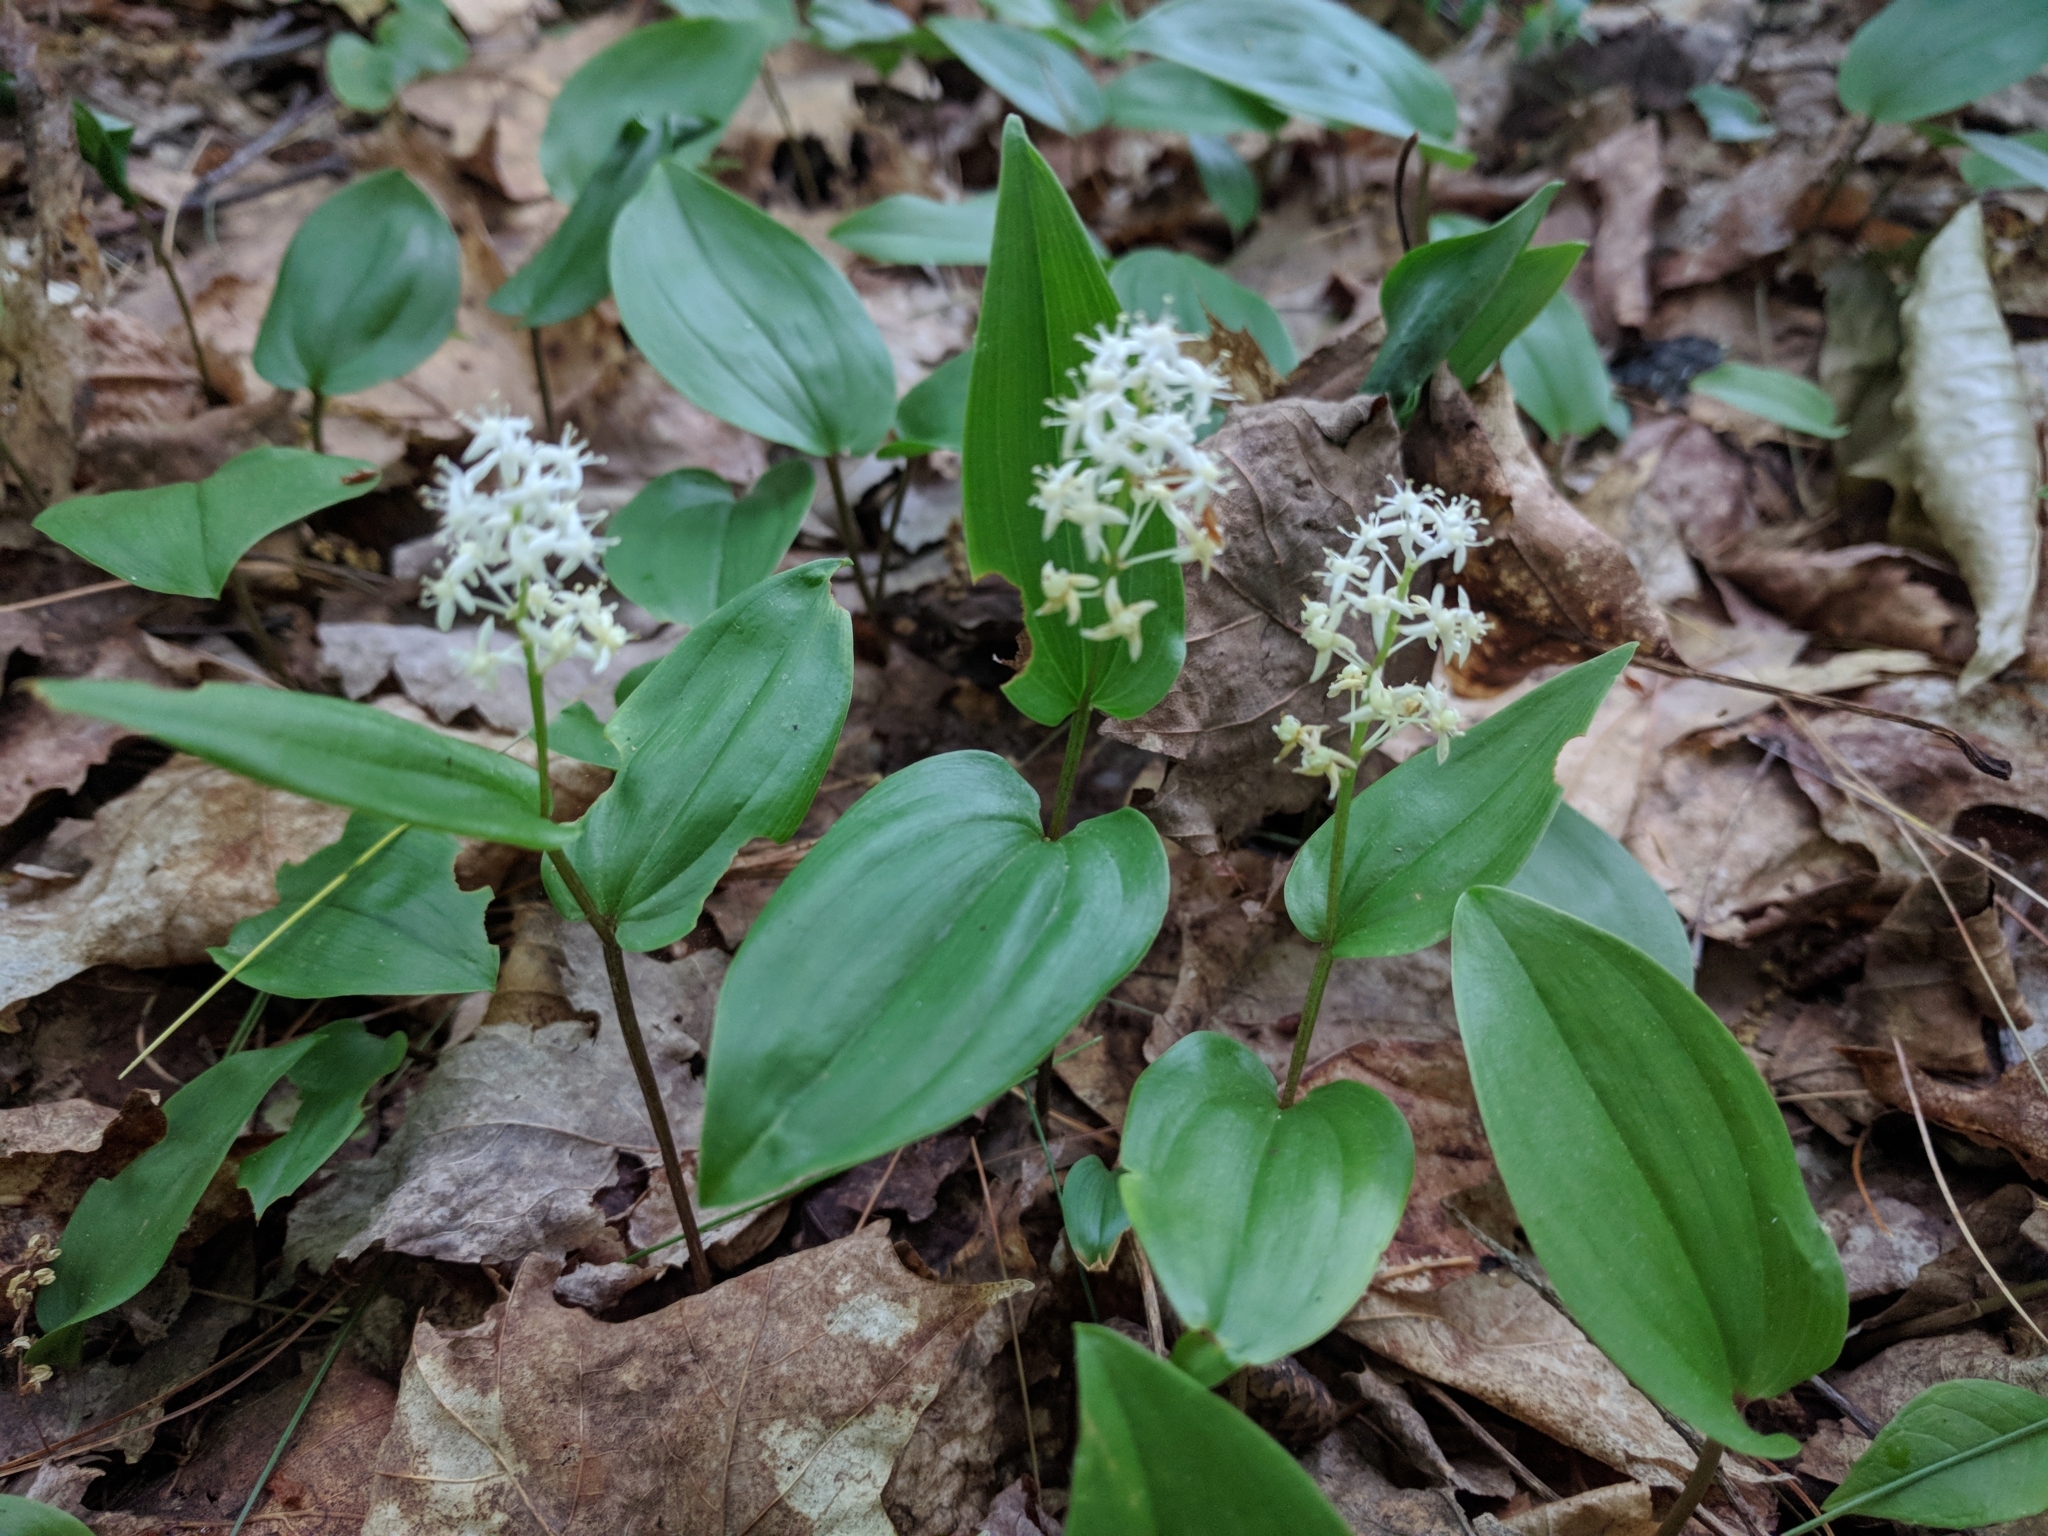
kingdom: Plantae
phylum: Tracheophyta
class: Liliopsida
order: Asparagales
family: Asparagaceae
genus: Maianthemum
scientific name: Maianthemum canadense
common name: False lily-of-the-valley
